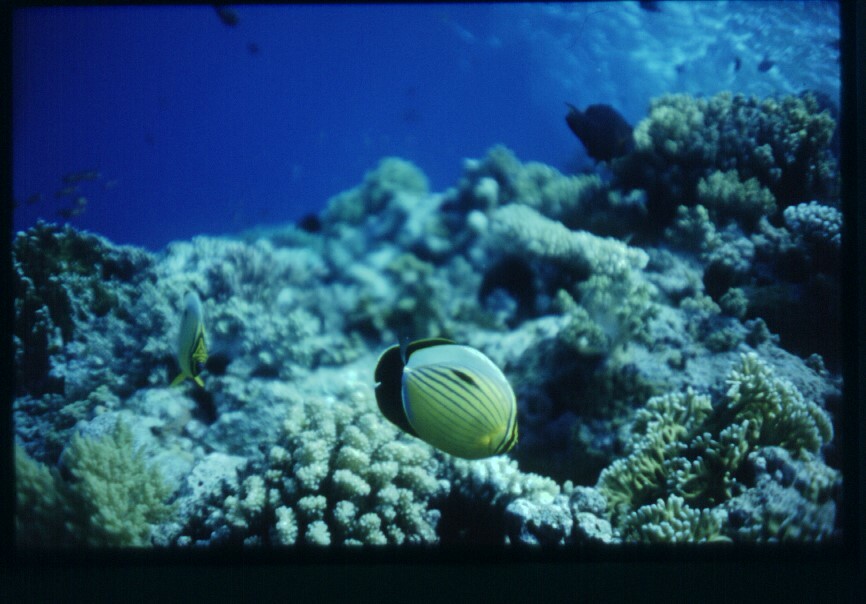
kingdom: Animalia
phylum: Chordata
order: Perciformes
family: Chaetodontidae
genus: Chaetodon
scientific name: Chaetodon austriacus
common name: Exquisite butterflyfish
